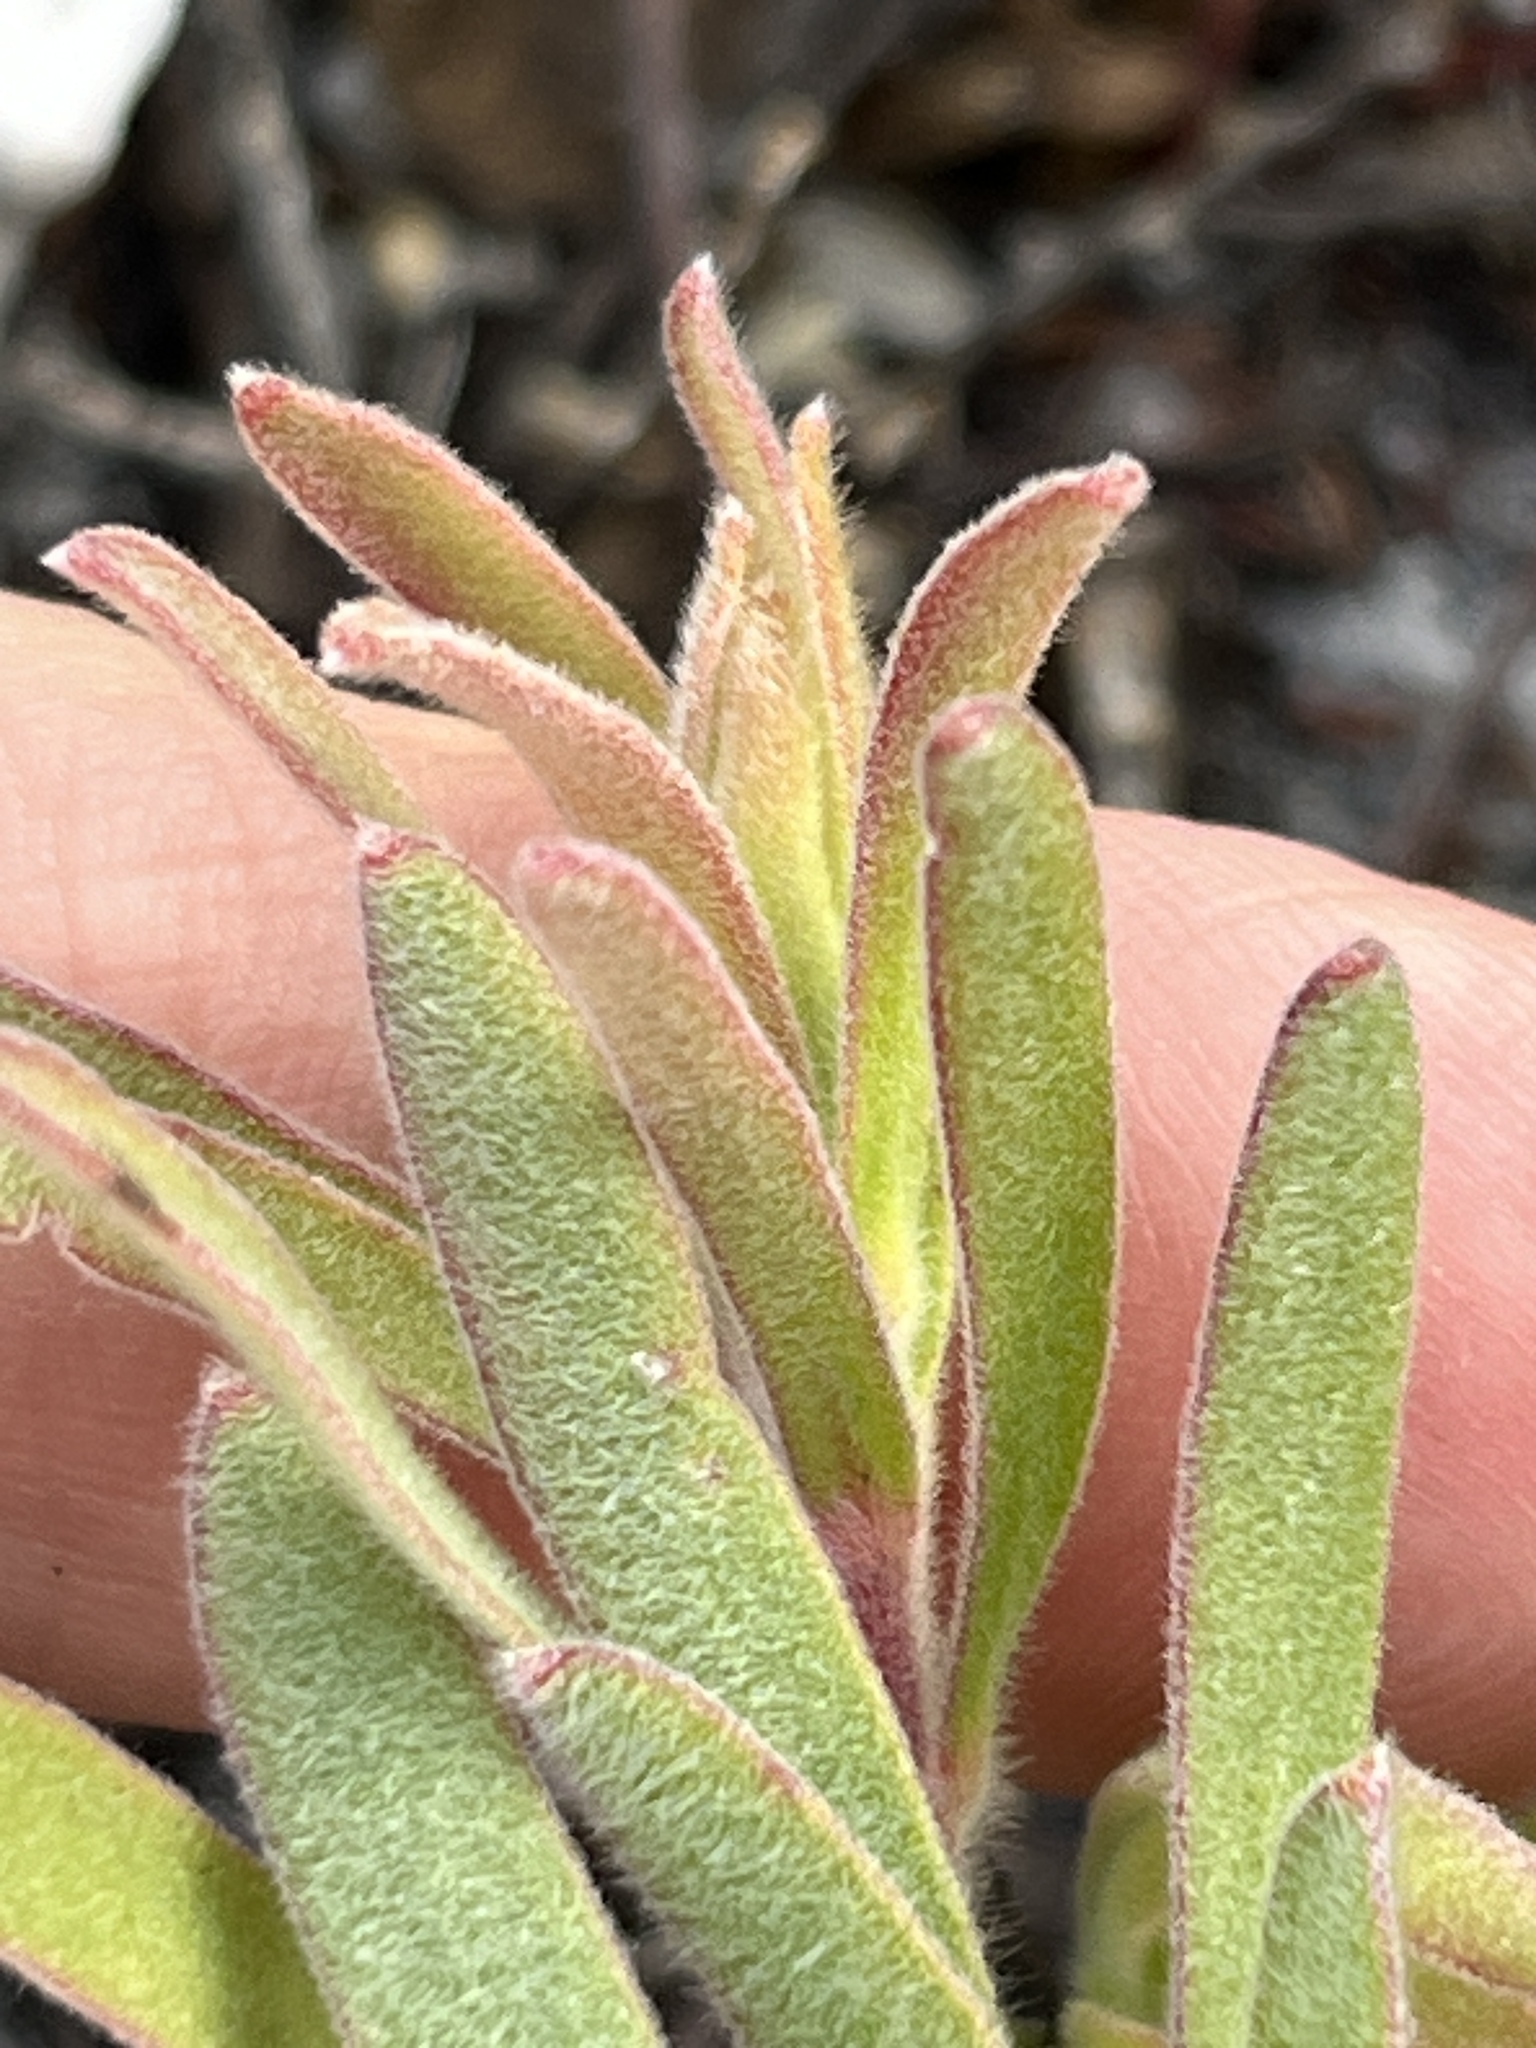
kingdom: Plantae
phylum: Tracheophyta
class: Magnoliopsida
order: Proteales
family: Proteaceae
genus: Leucospermum
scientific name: Leucospermum pedunculatum
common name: White-trailing pincushion
